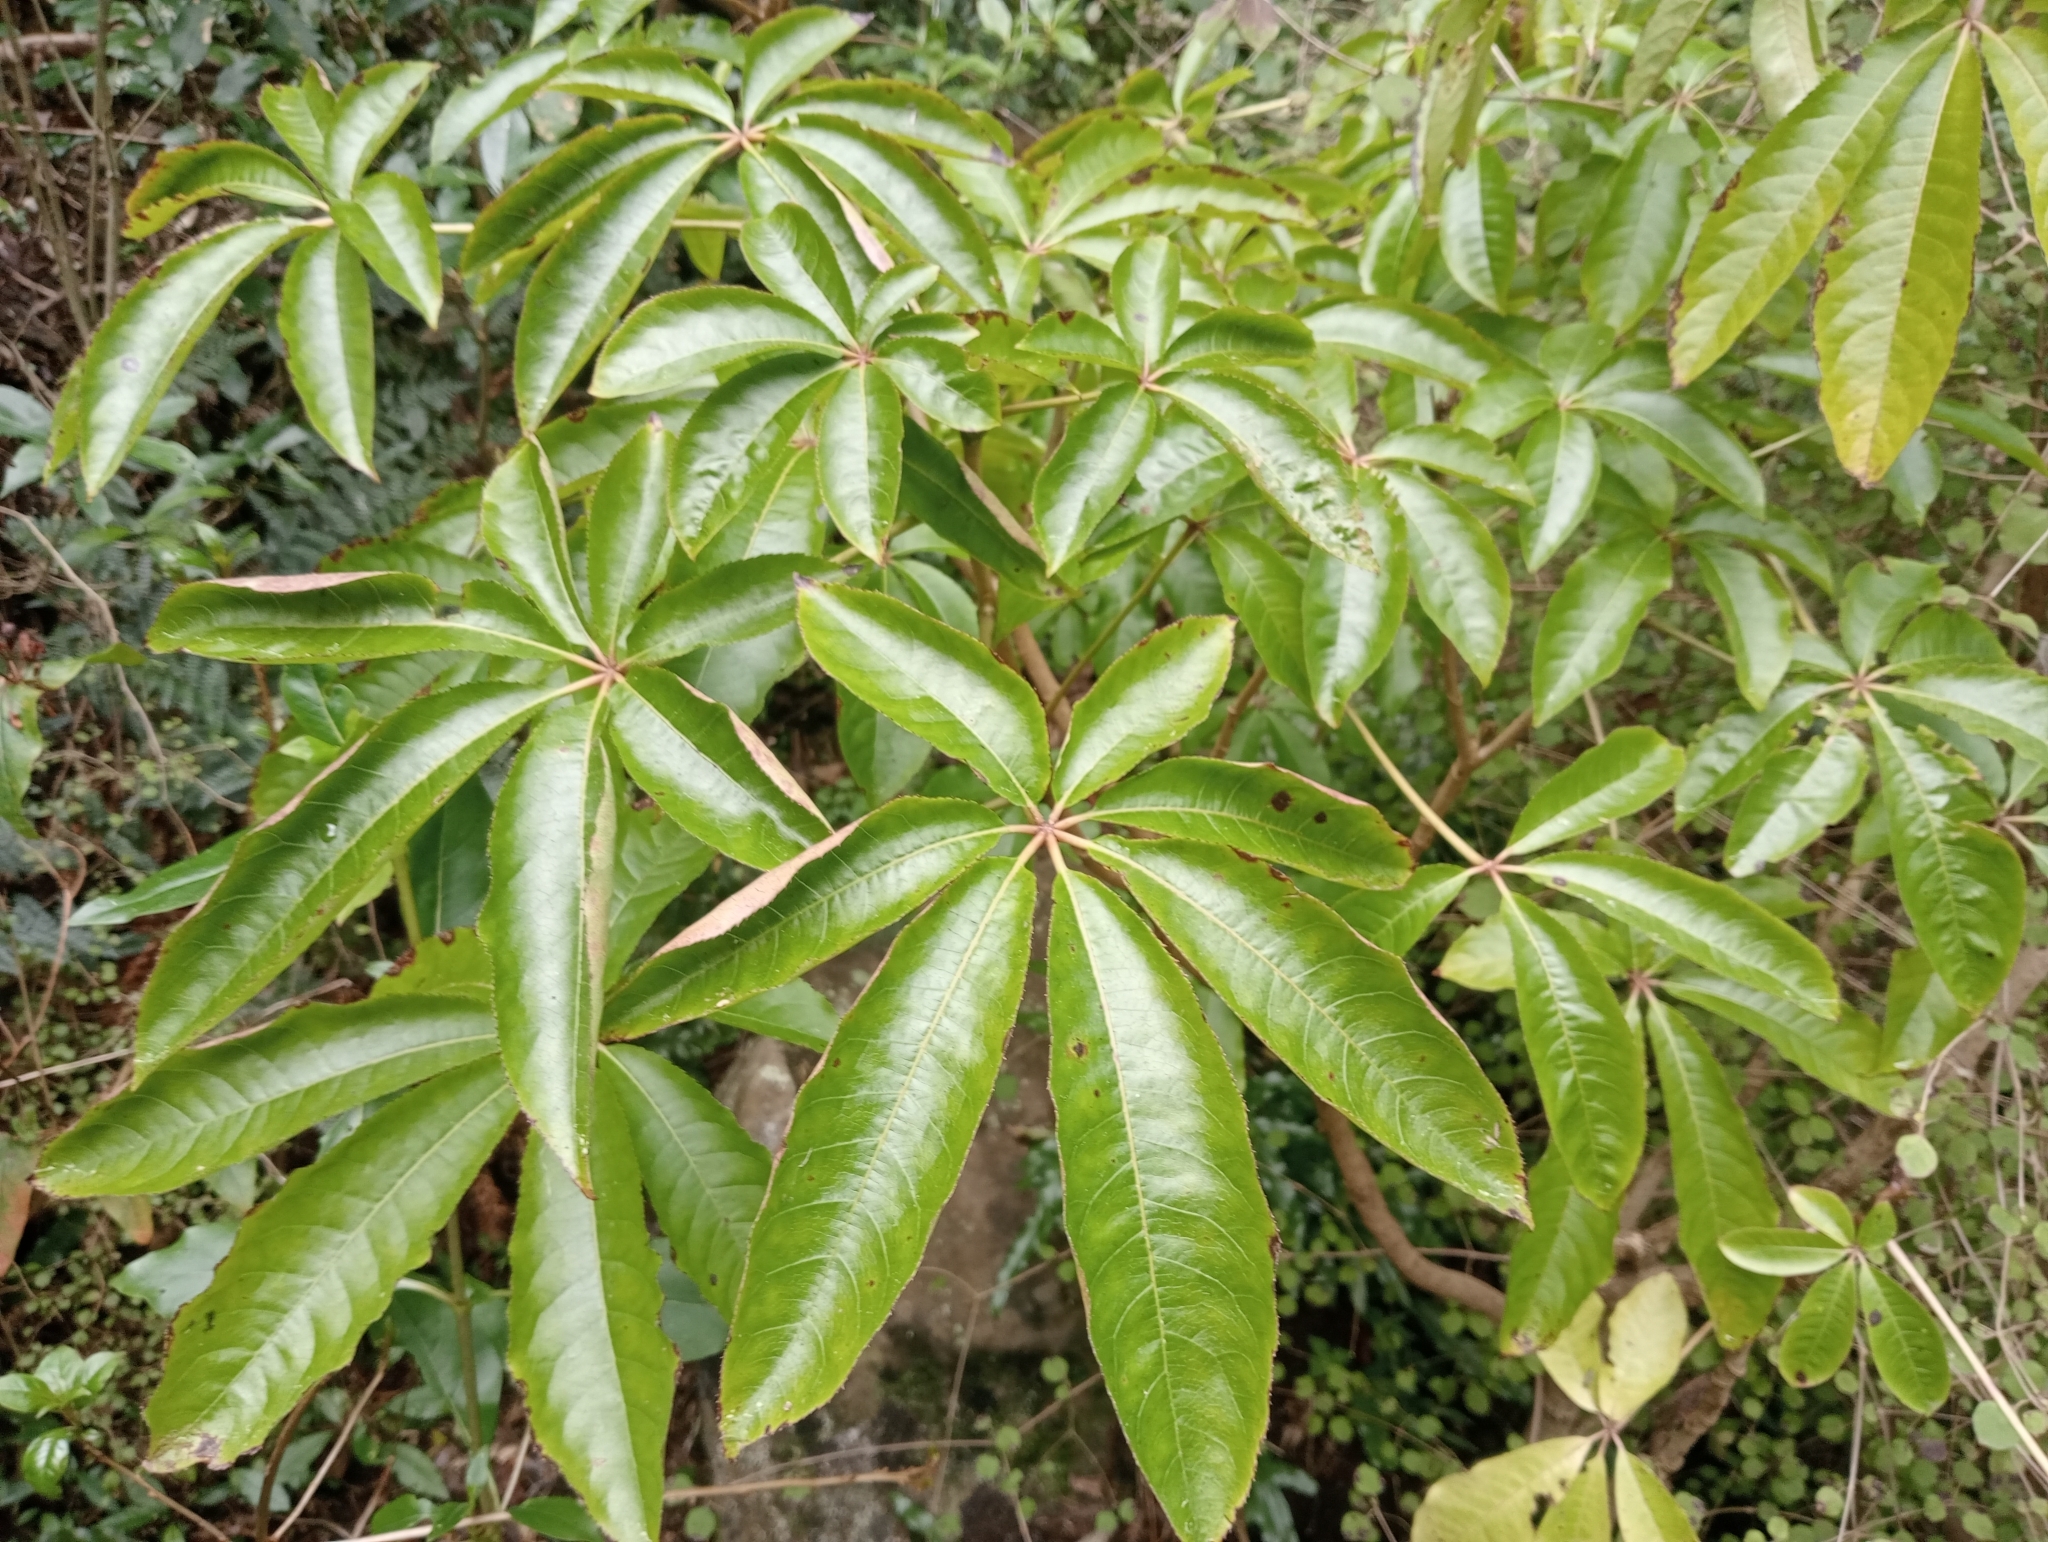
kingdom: Plantae
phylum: Tracheophyta
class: Magnoliopsida
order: Apiales
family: Araliaceae
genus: Schefflera
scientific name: Schefflera digitata
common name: Pate
